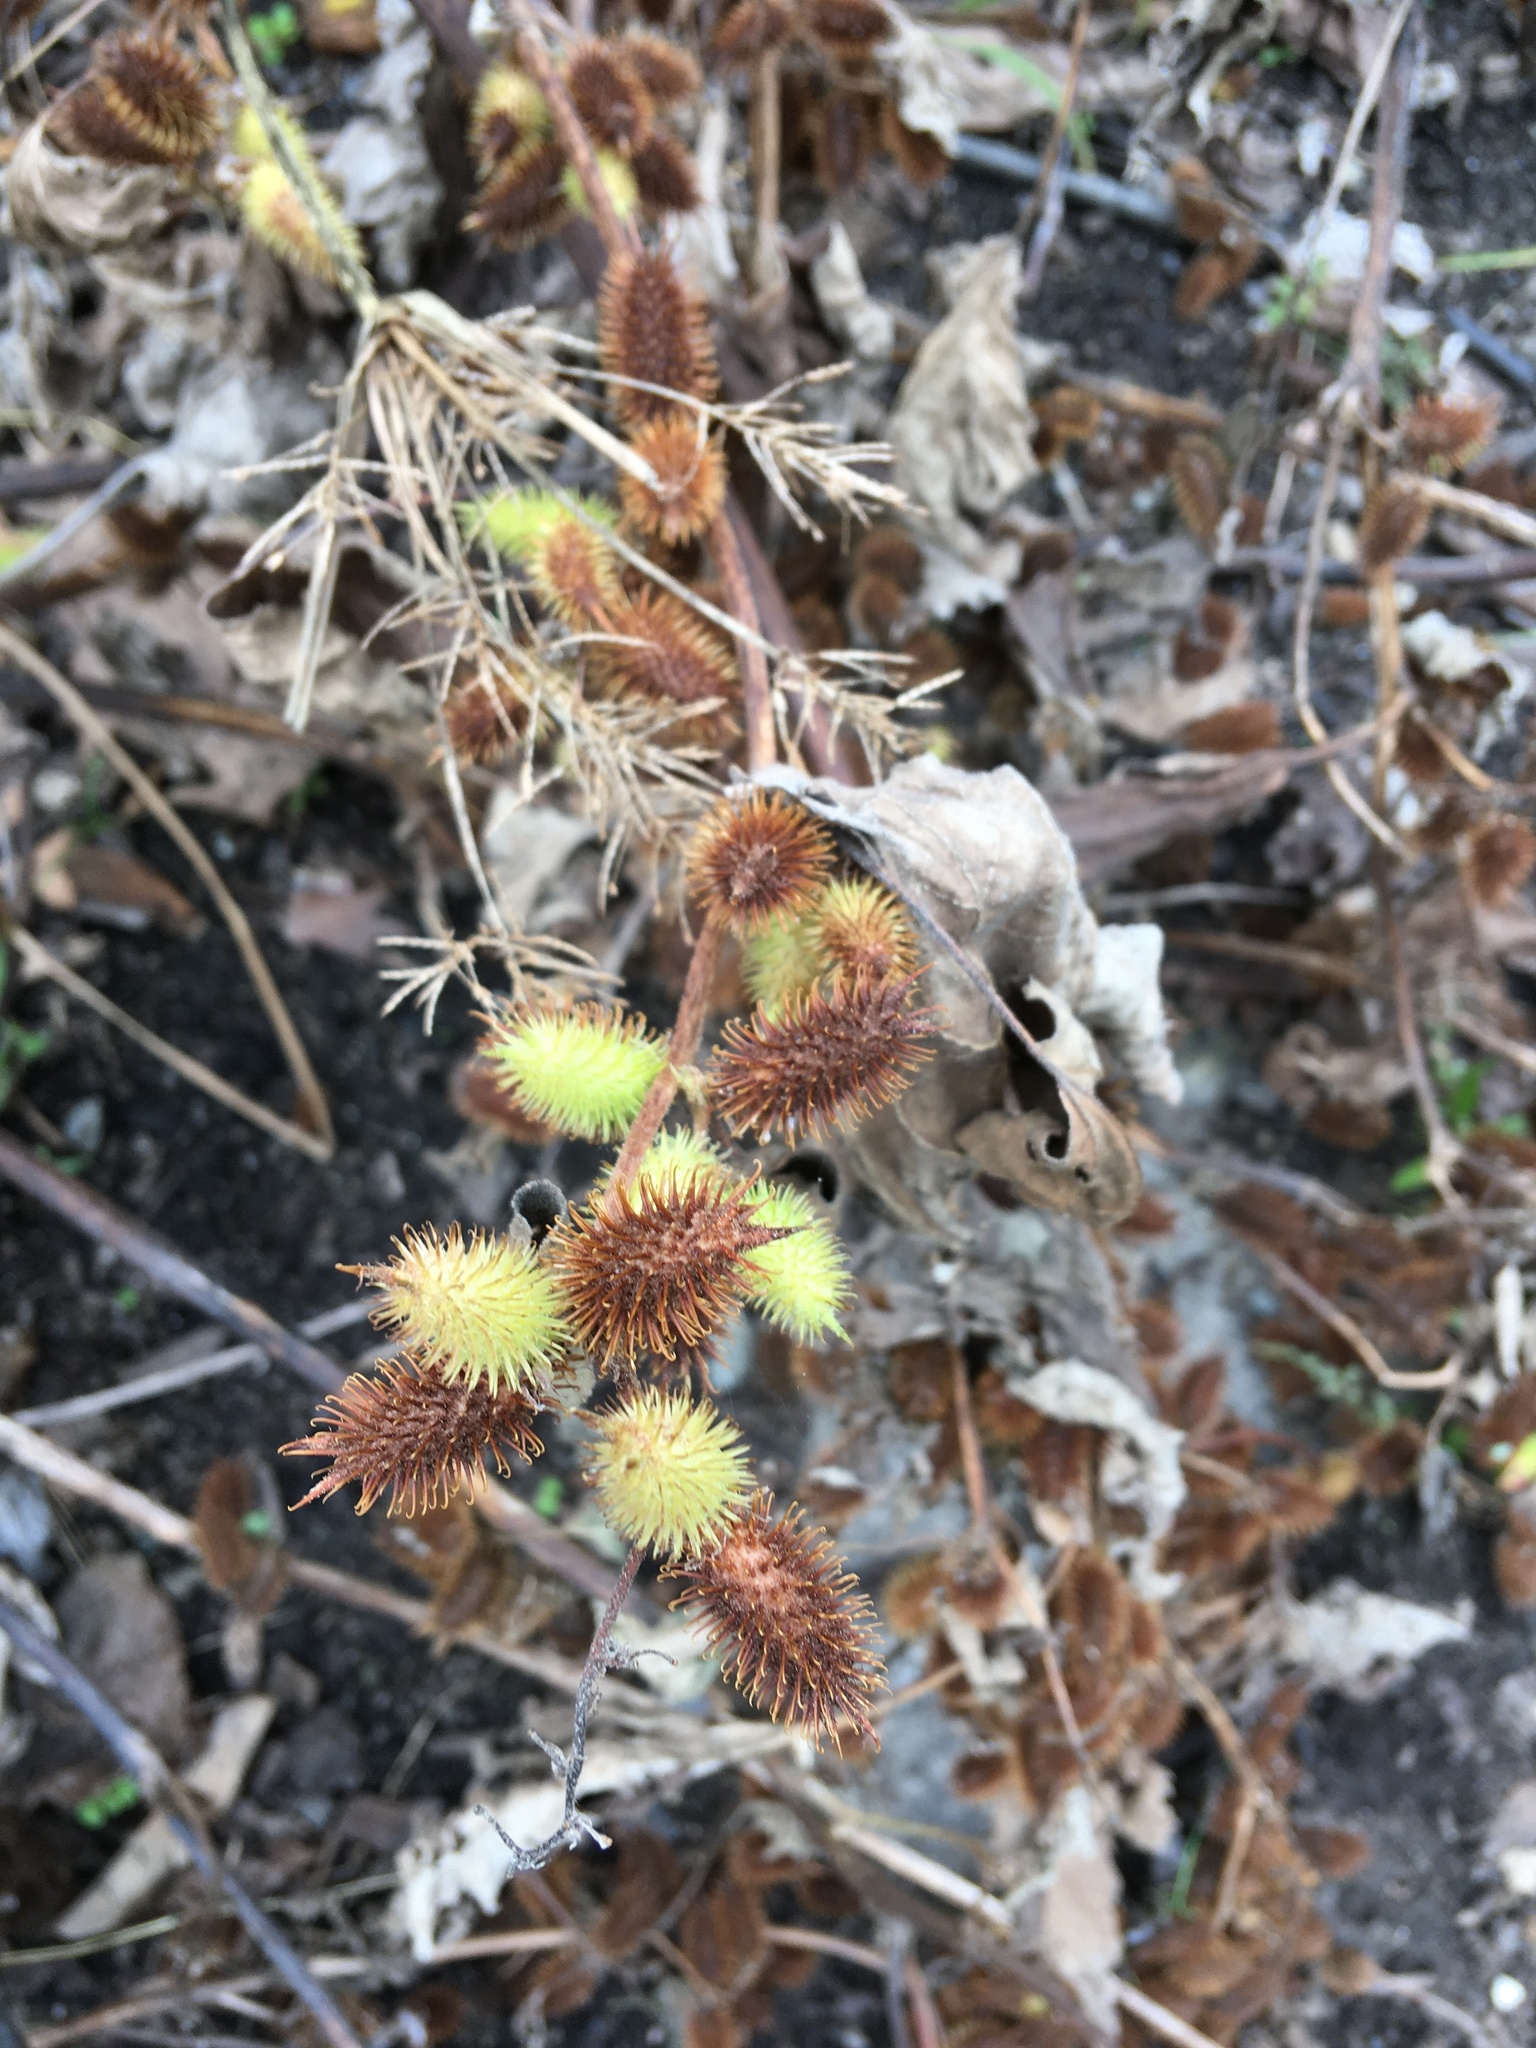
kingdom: Plantae
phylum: Tracheophyta
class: Magnoliopsida
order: Asterales
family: Asteraceae
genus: Xanthium
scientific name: Xanthium strumarium
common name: Rough cocklebur
